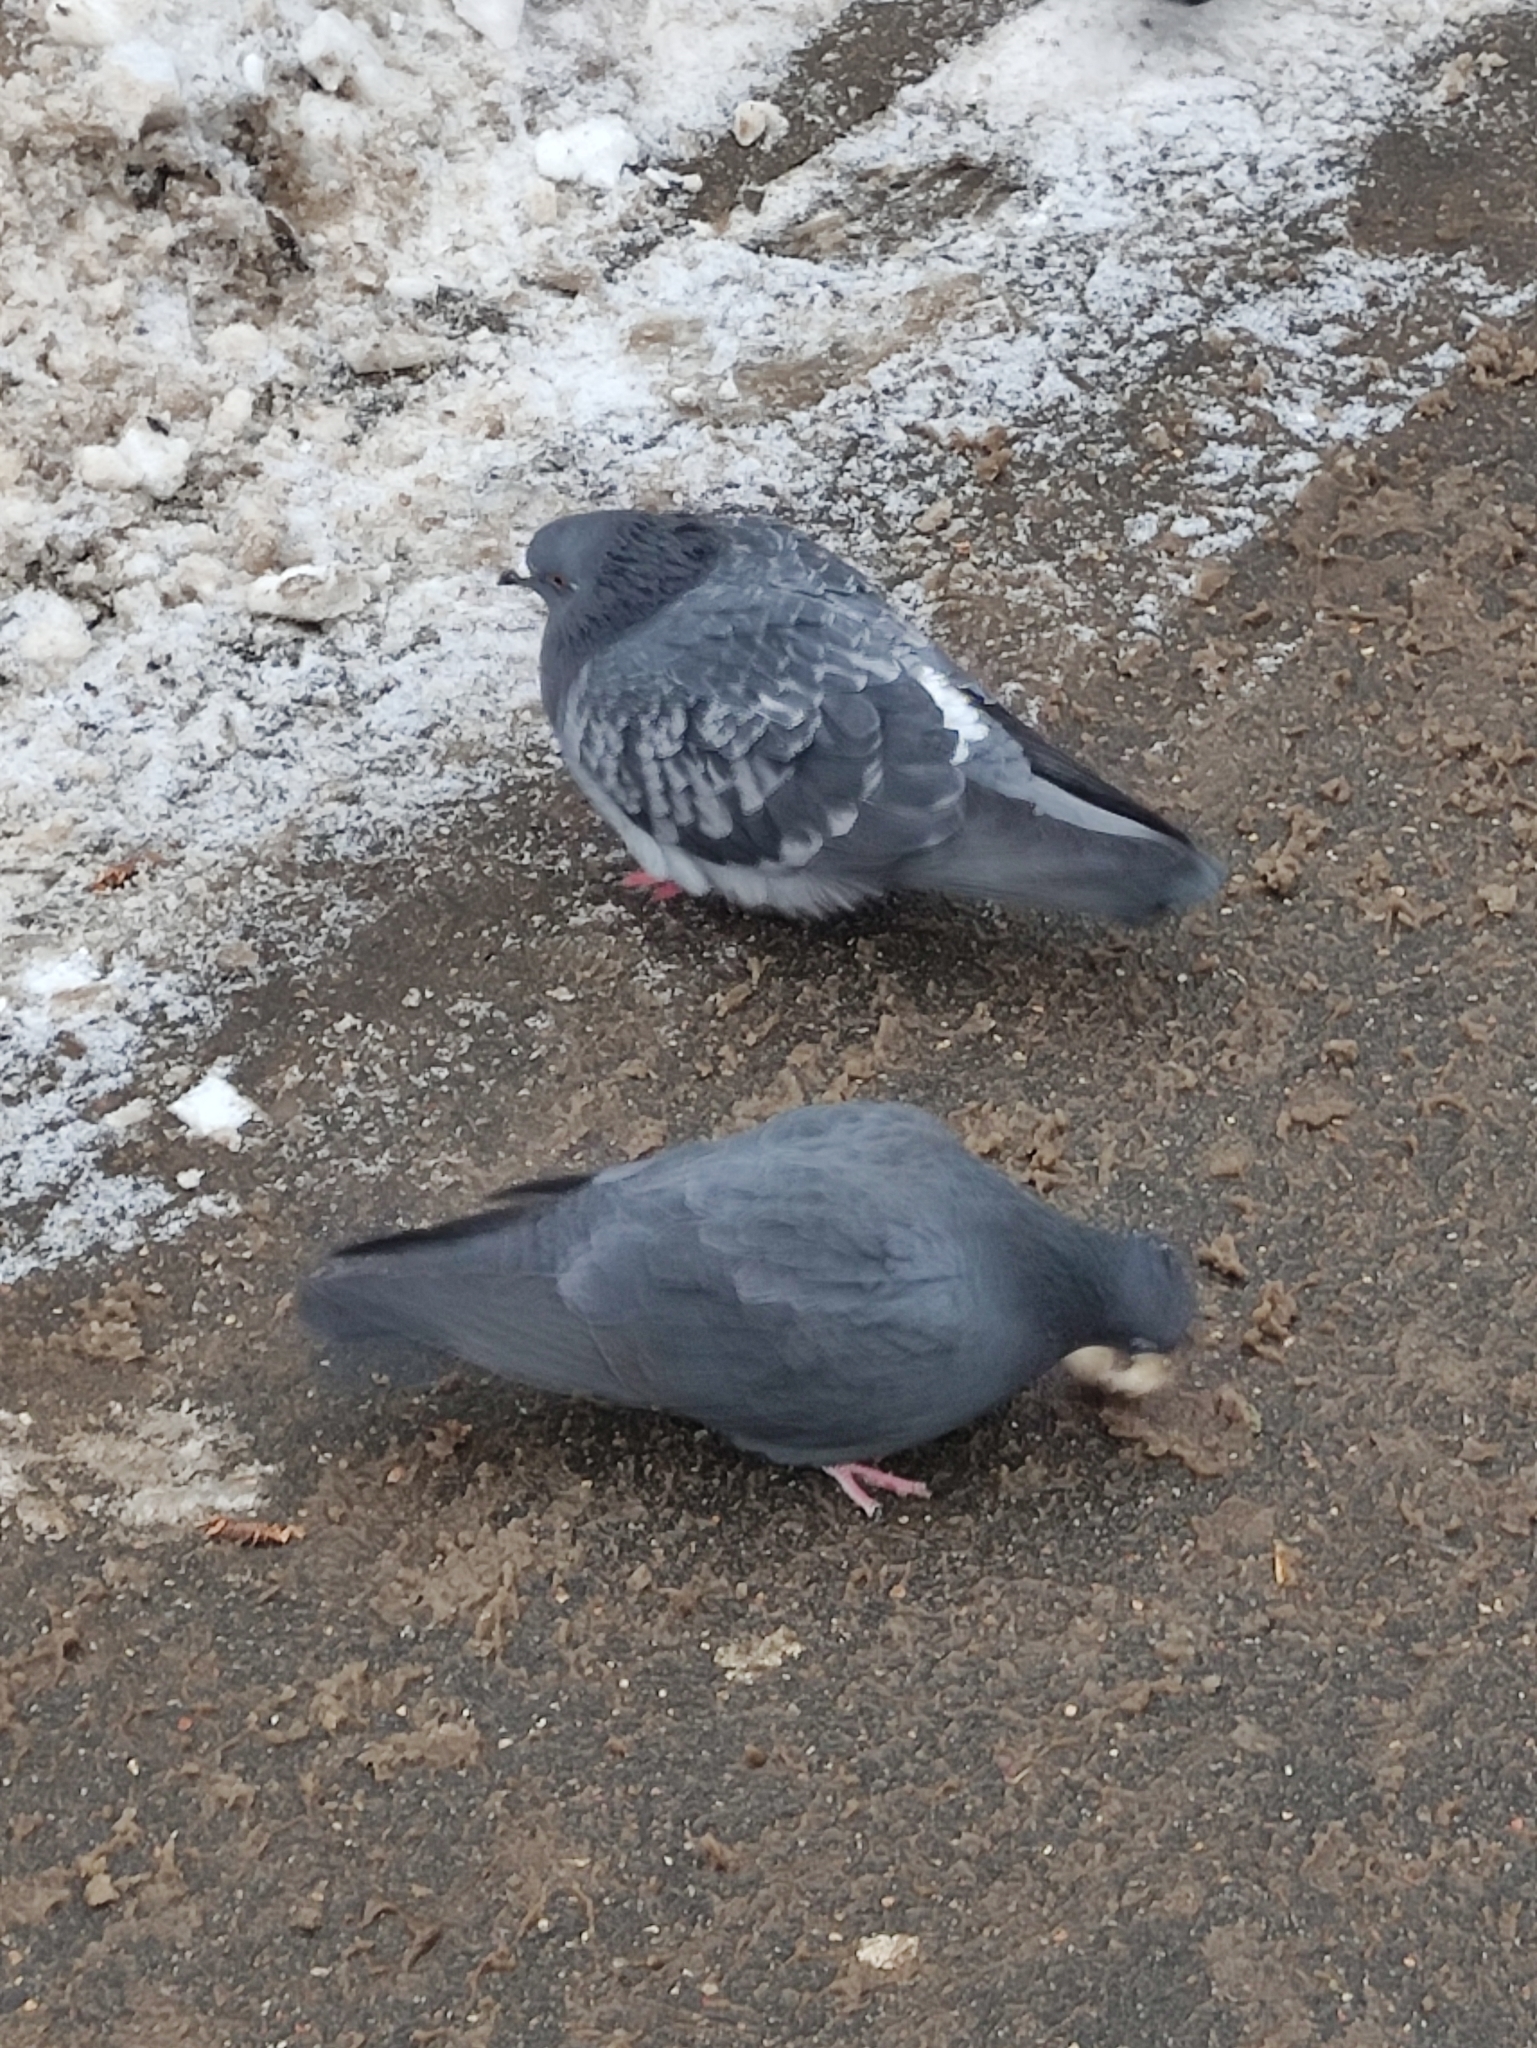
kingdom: Animalia
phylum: Chordata
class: Aves
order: Columbiformes
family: Columbidae
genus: Columba
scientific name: Columba livia
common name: Rock pigeon
